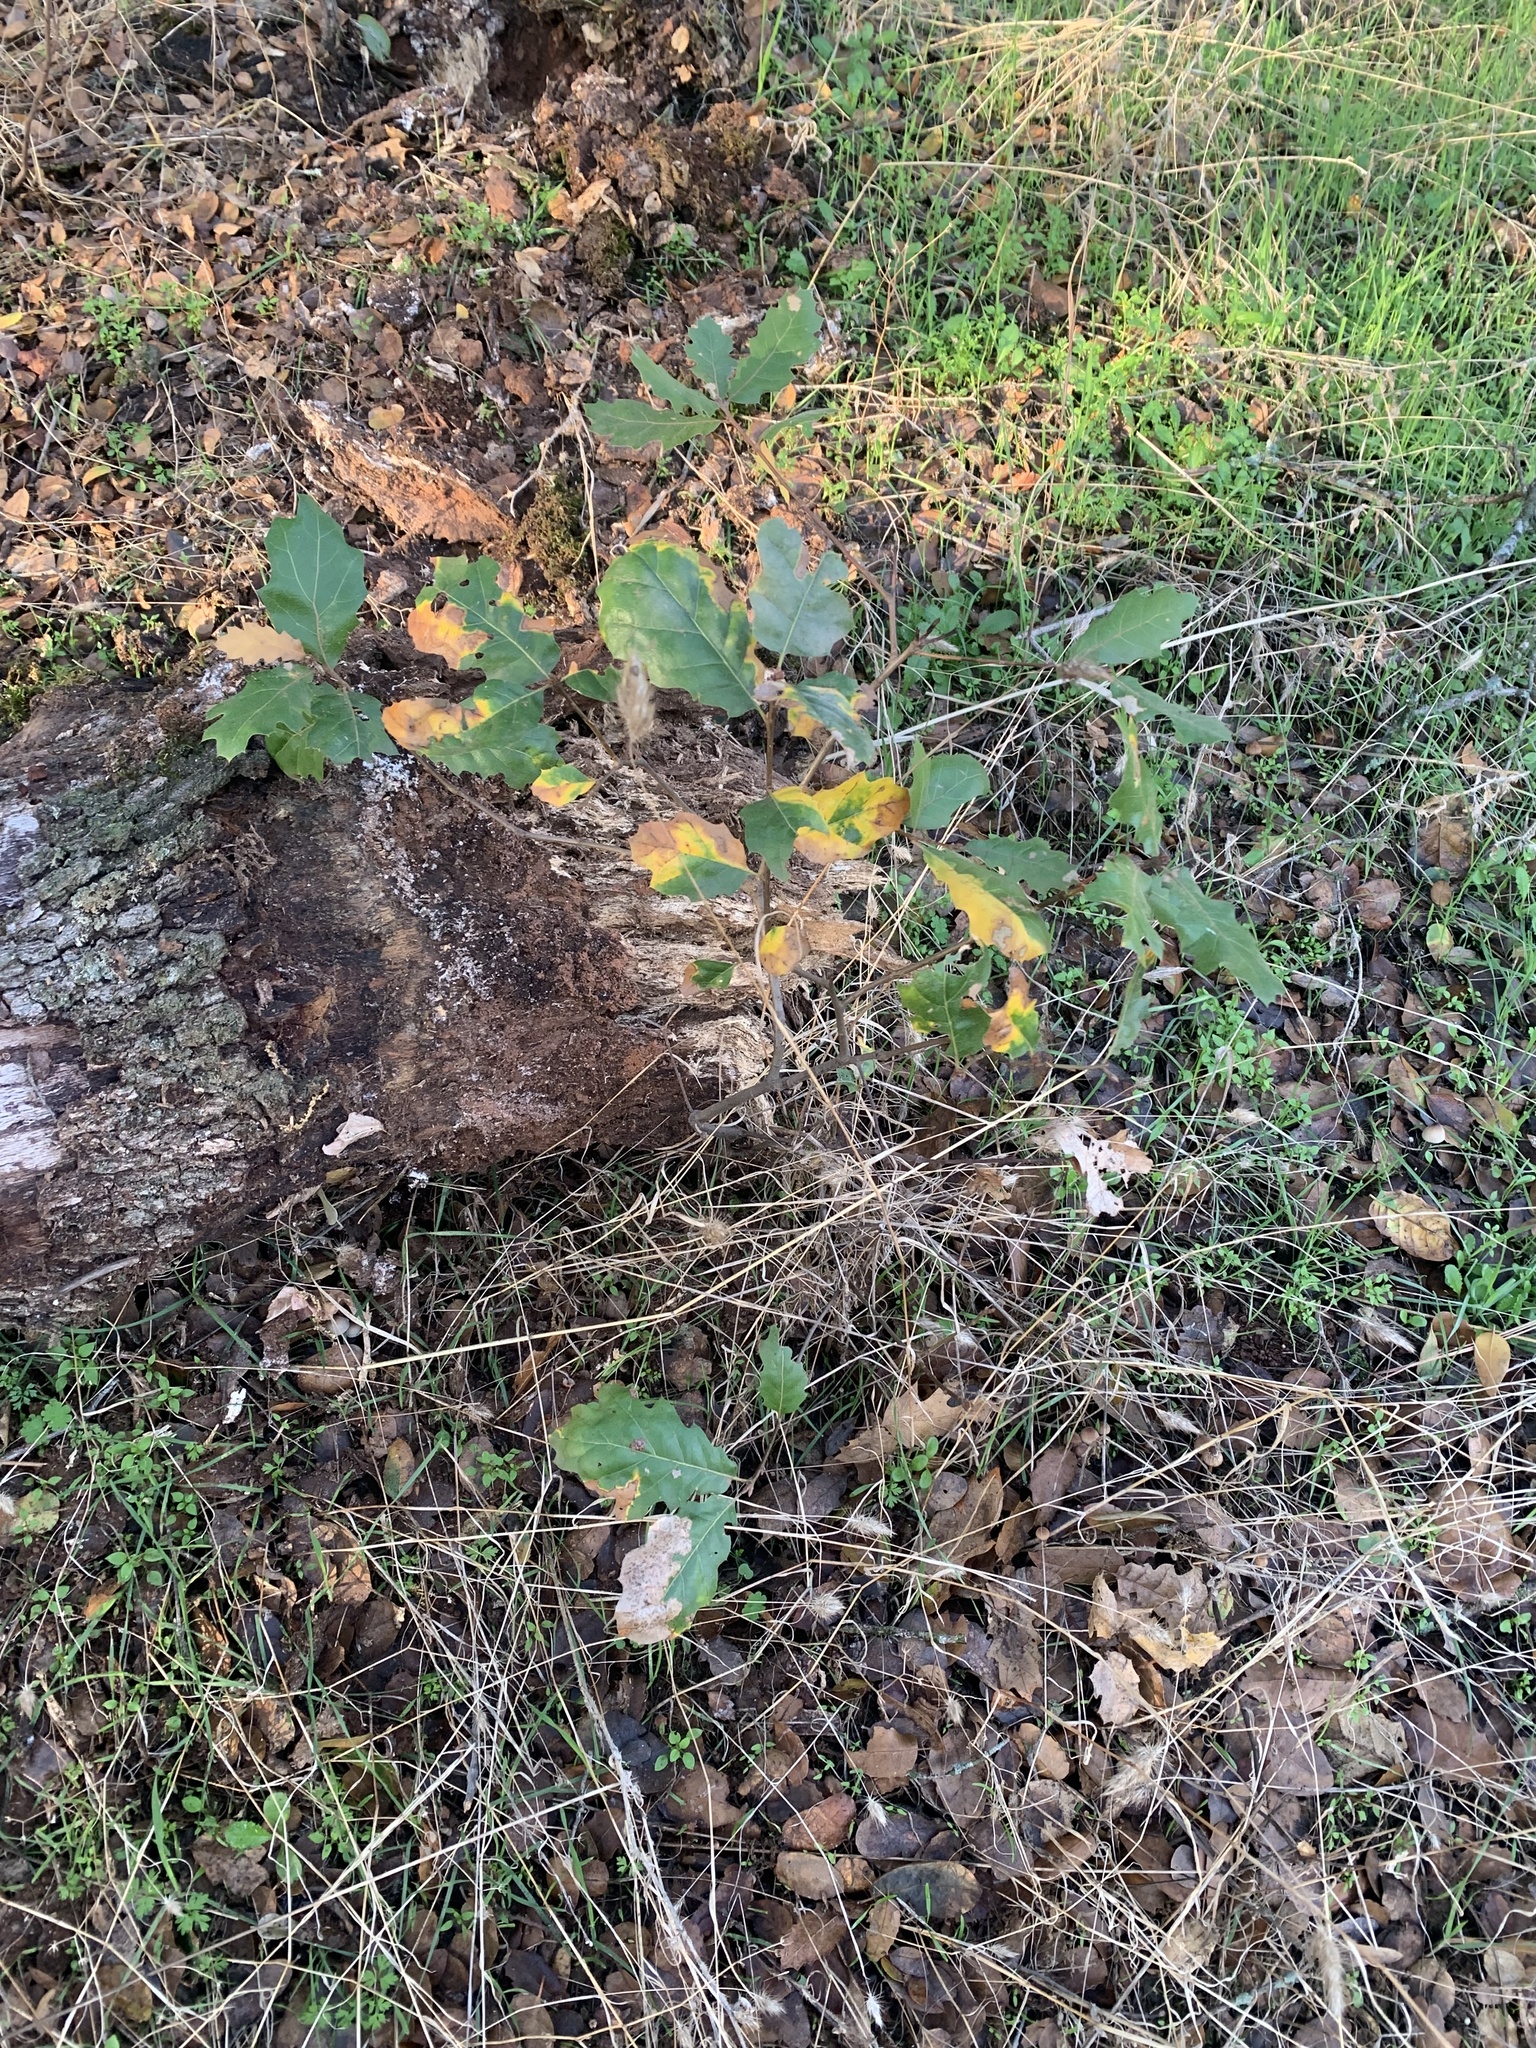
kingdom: Plantae
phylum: Tracheophyta
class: Magnoliopsida
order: Fagales
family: Fagaceae
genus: Quercus
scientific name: Quercus morehus
